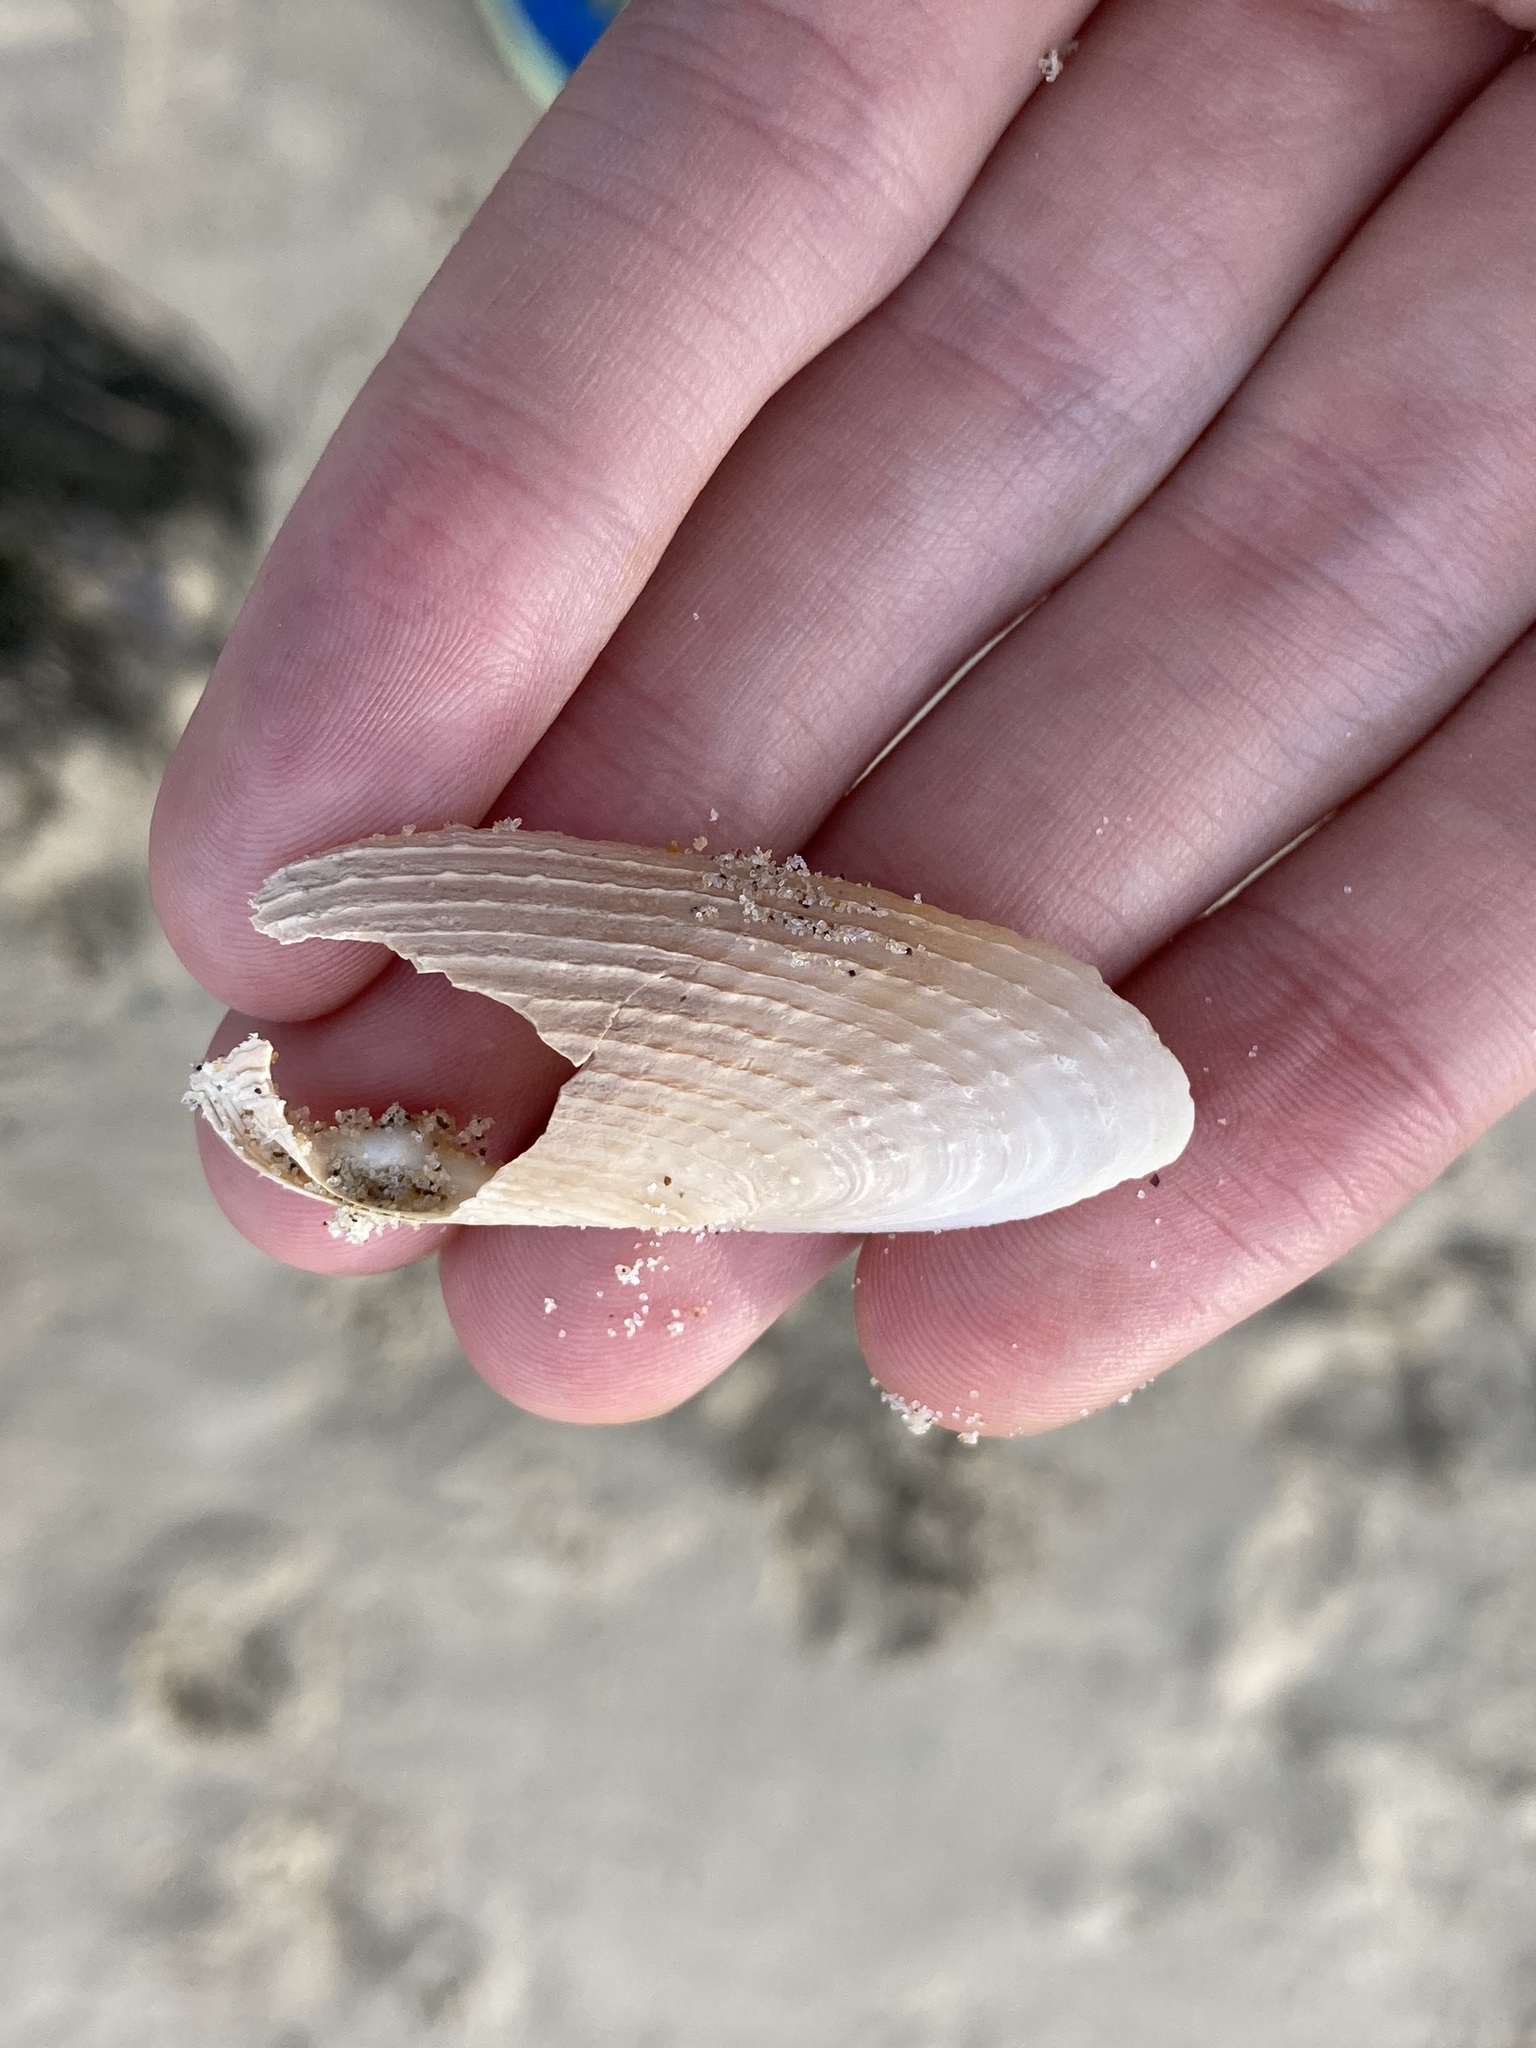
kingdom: Animalia
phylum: Mollusca
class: Bivalvia
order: Myida
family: Pholadidae
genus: Barnea
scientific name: Barnea australasiae
